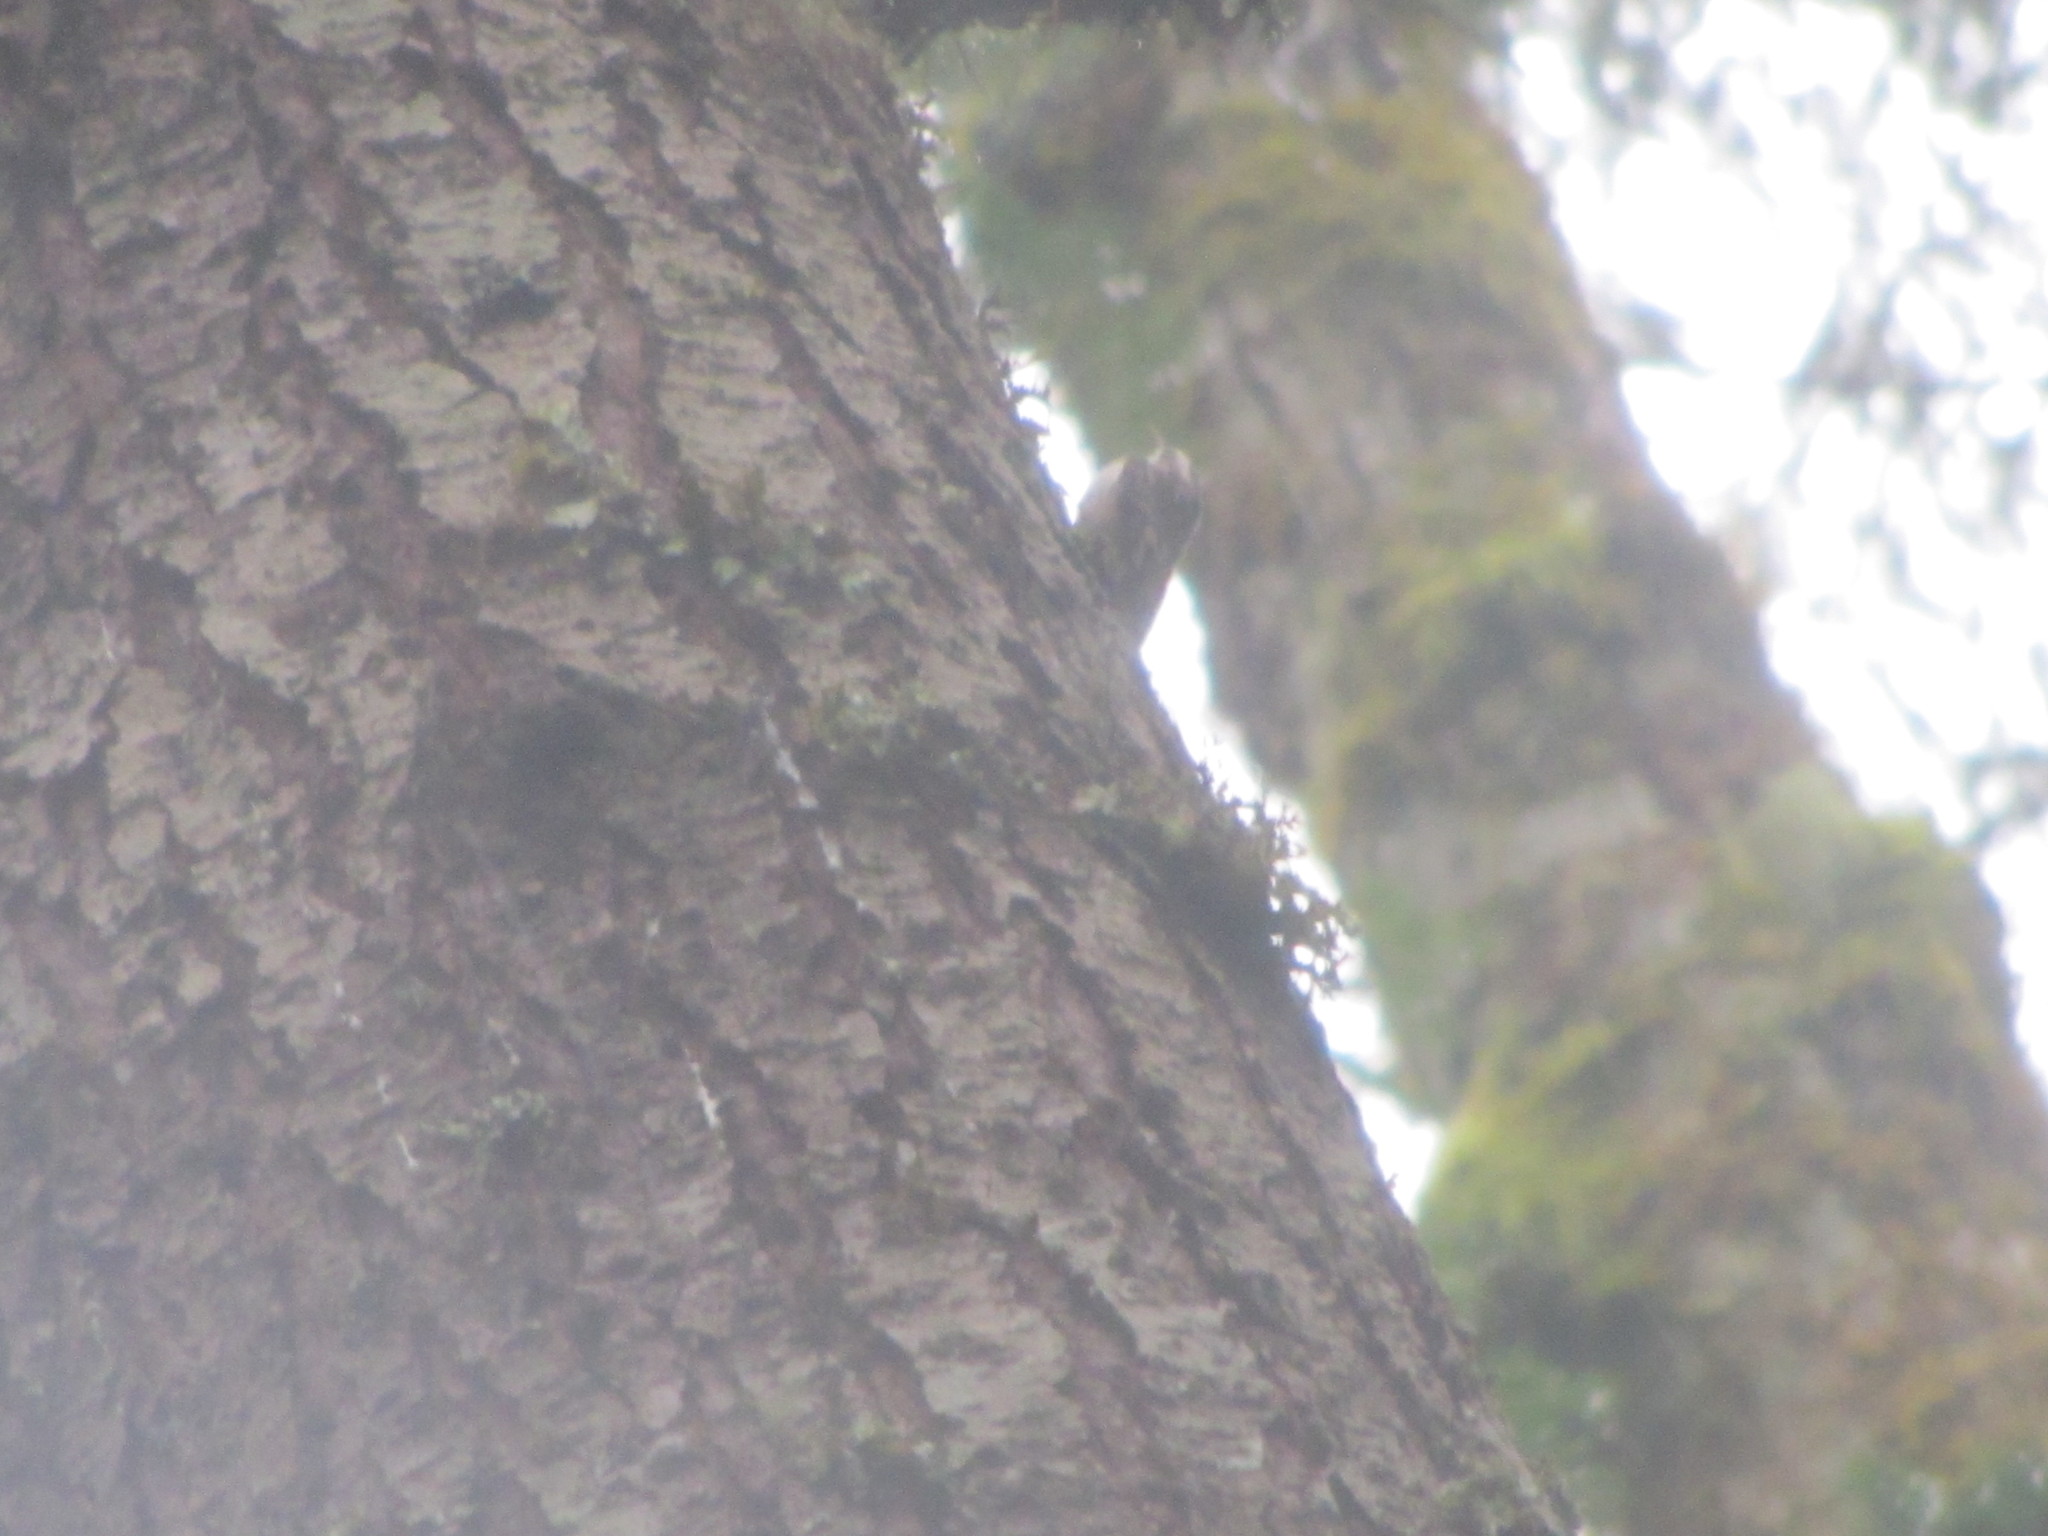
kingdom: Animalia
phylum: Chordata
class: Aves
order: Passeriformes
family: Certhiidae
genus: Certhia
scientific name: Certhia americana
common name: Brown creeper
